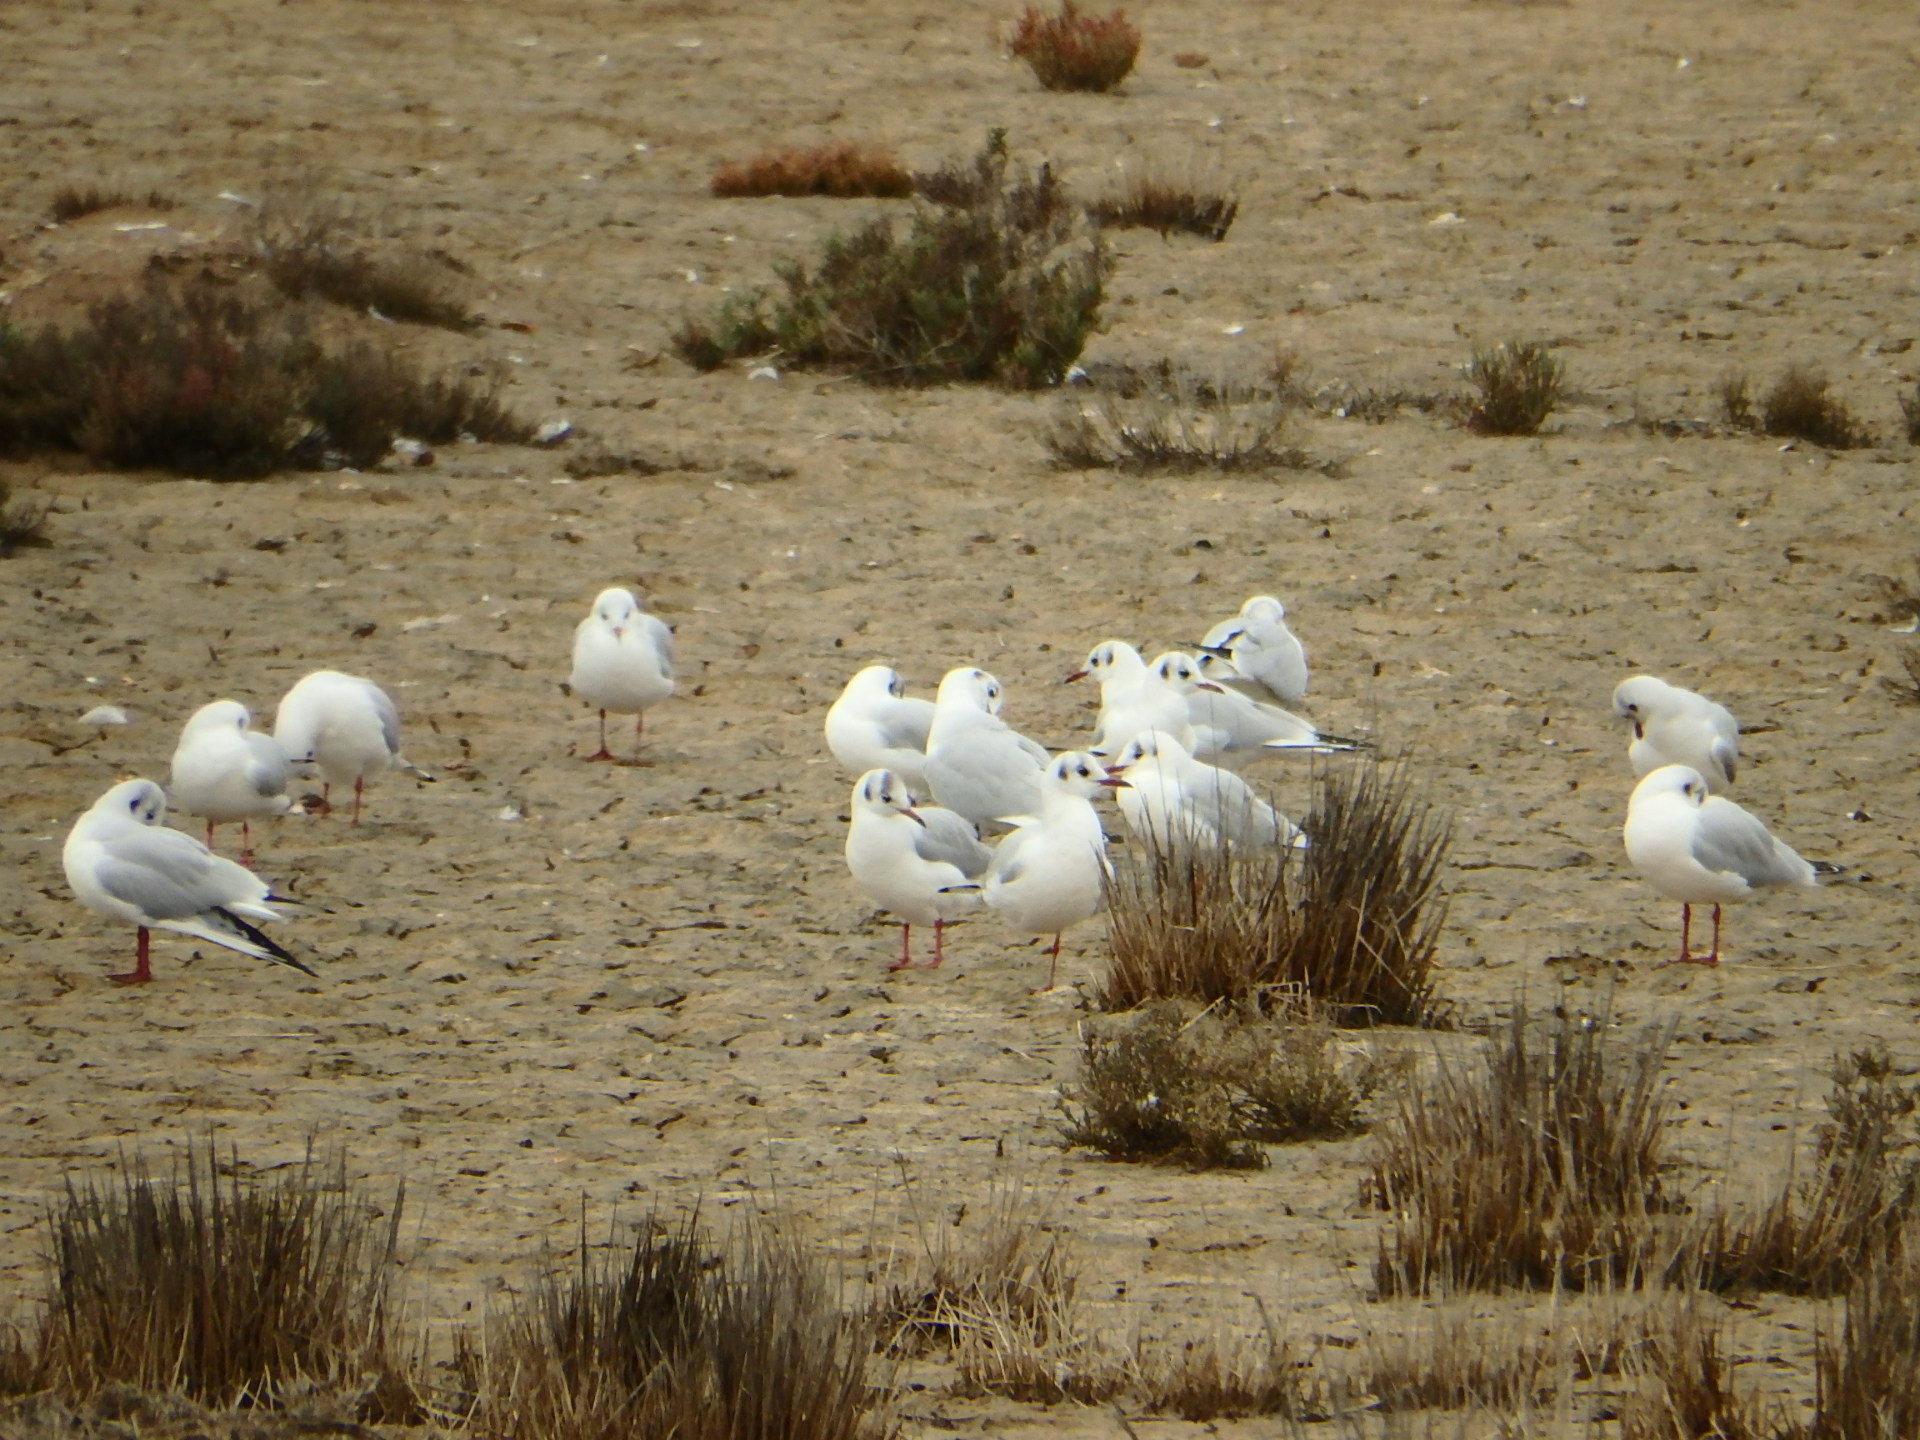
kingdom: Animalia
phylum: Chordata
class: Aves
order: Charadriiformes
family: Laridae
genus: Chroicocephalus
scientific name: Chroicocephalus ridibundus
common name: Black-headed gull
